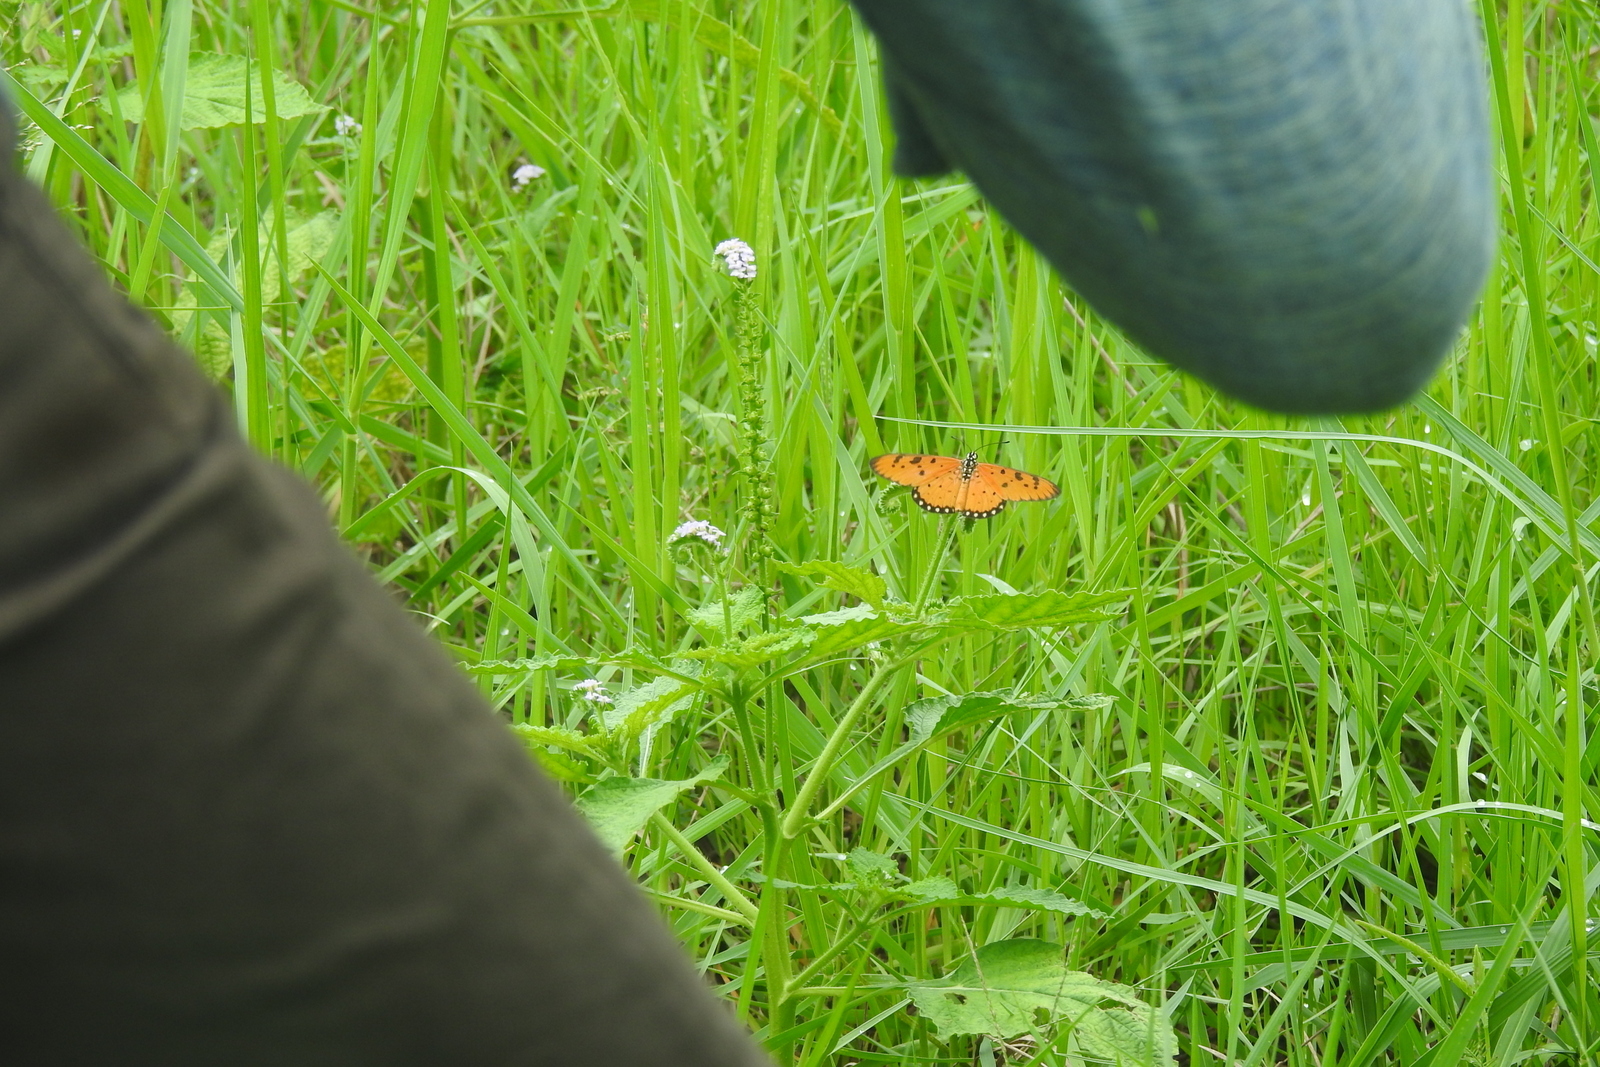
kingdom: Animalia
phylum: Arthropoda
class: Insecta
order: Lepidoptera
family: Nymphalidae
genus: Acraea
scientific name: Acraea terpsicore
